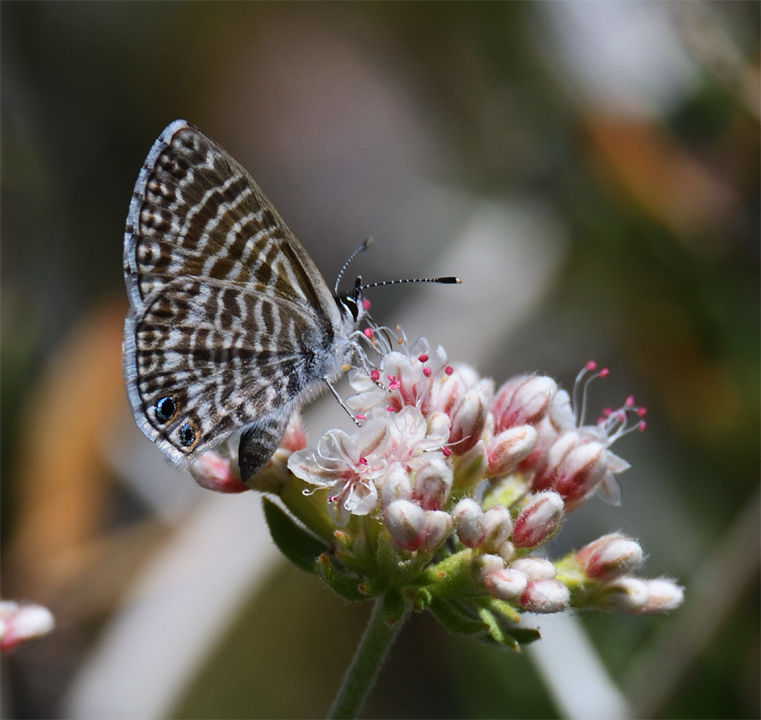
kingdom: Animalia
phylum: Arthropoda
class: Insecta
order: Lepidoptera
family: Lycaenidae
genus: Leptotes
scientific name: Leptotes marina
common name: Marine blue
